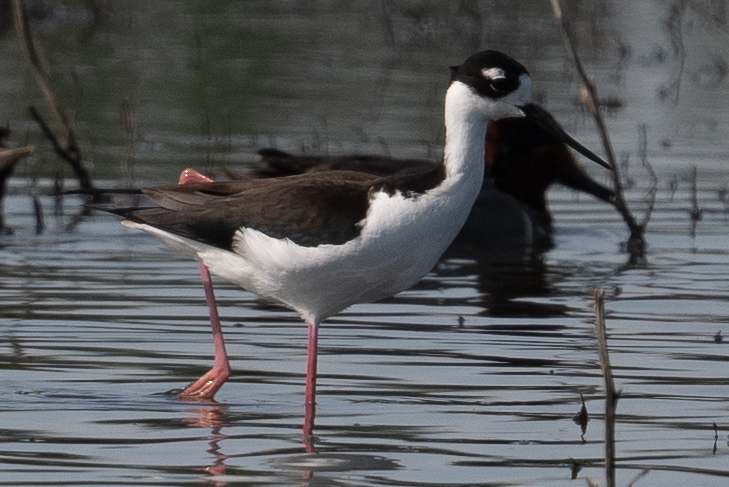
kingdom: Animalia
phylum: Chordata
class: Aves
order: Charadriiformes
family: Recurvirostridae
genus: Himantopus
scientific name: Himantopus mexicanus
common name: Black-necked stilt
